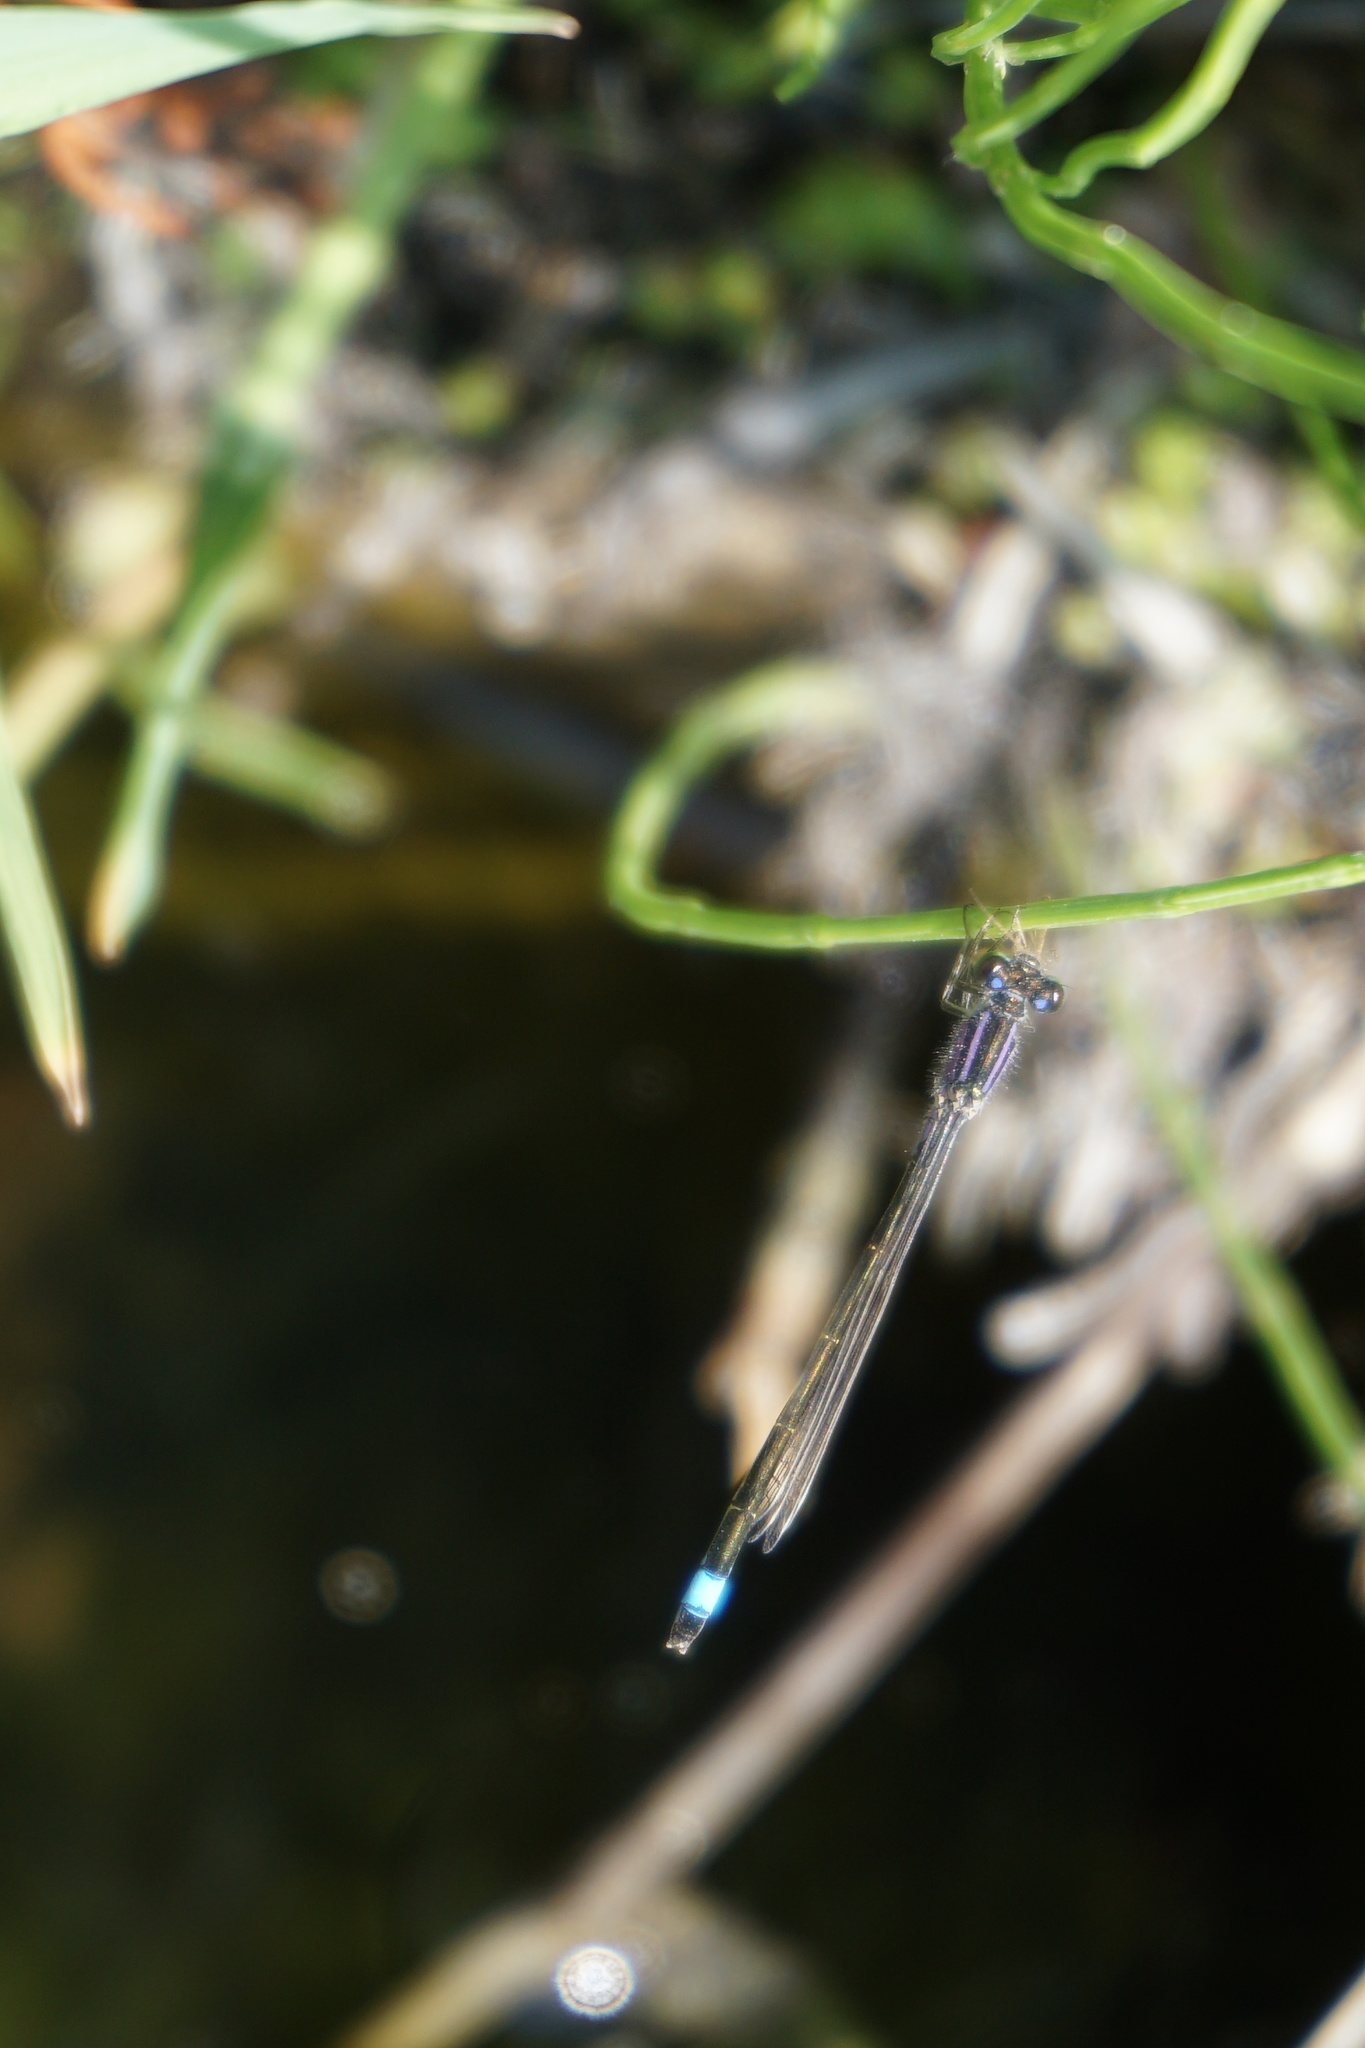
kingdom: Animalia
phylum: Arthropoda
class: Insecta
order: Odonata
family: Coenagrionidae
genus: Ischnura
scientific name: Ischnura elegans
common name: Blue-tailed damselfly
